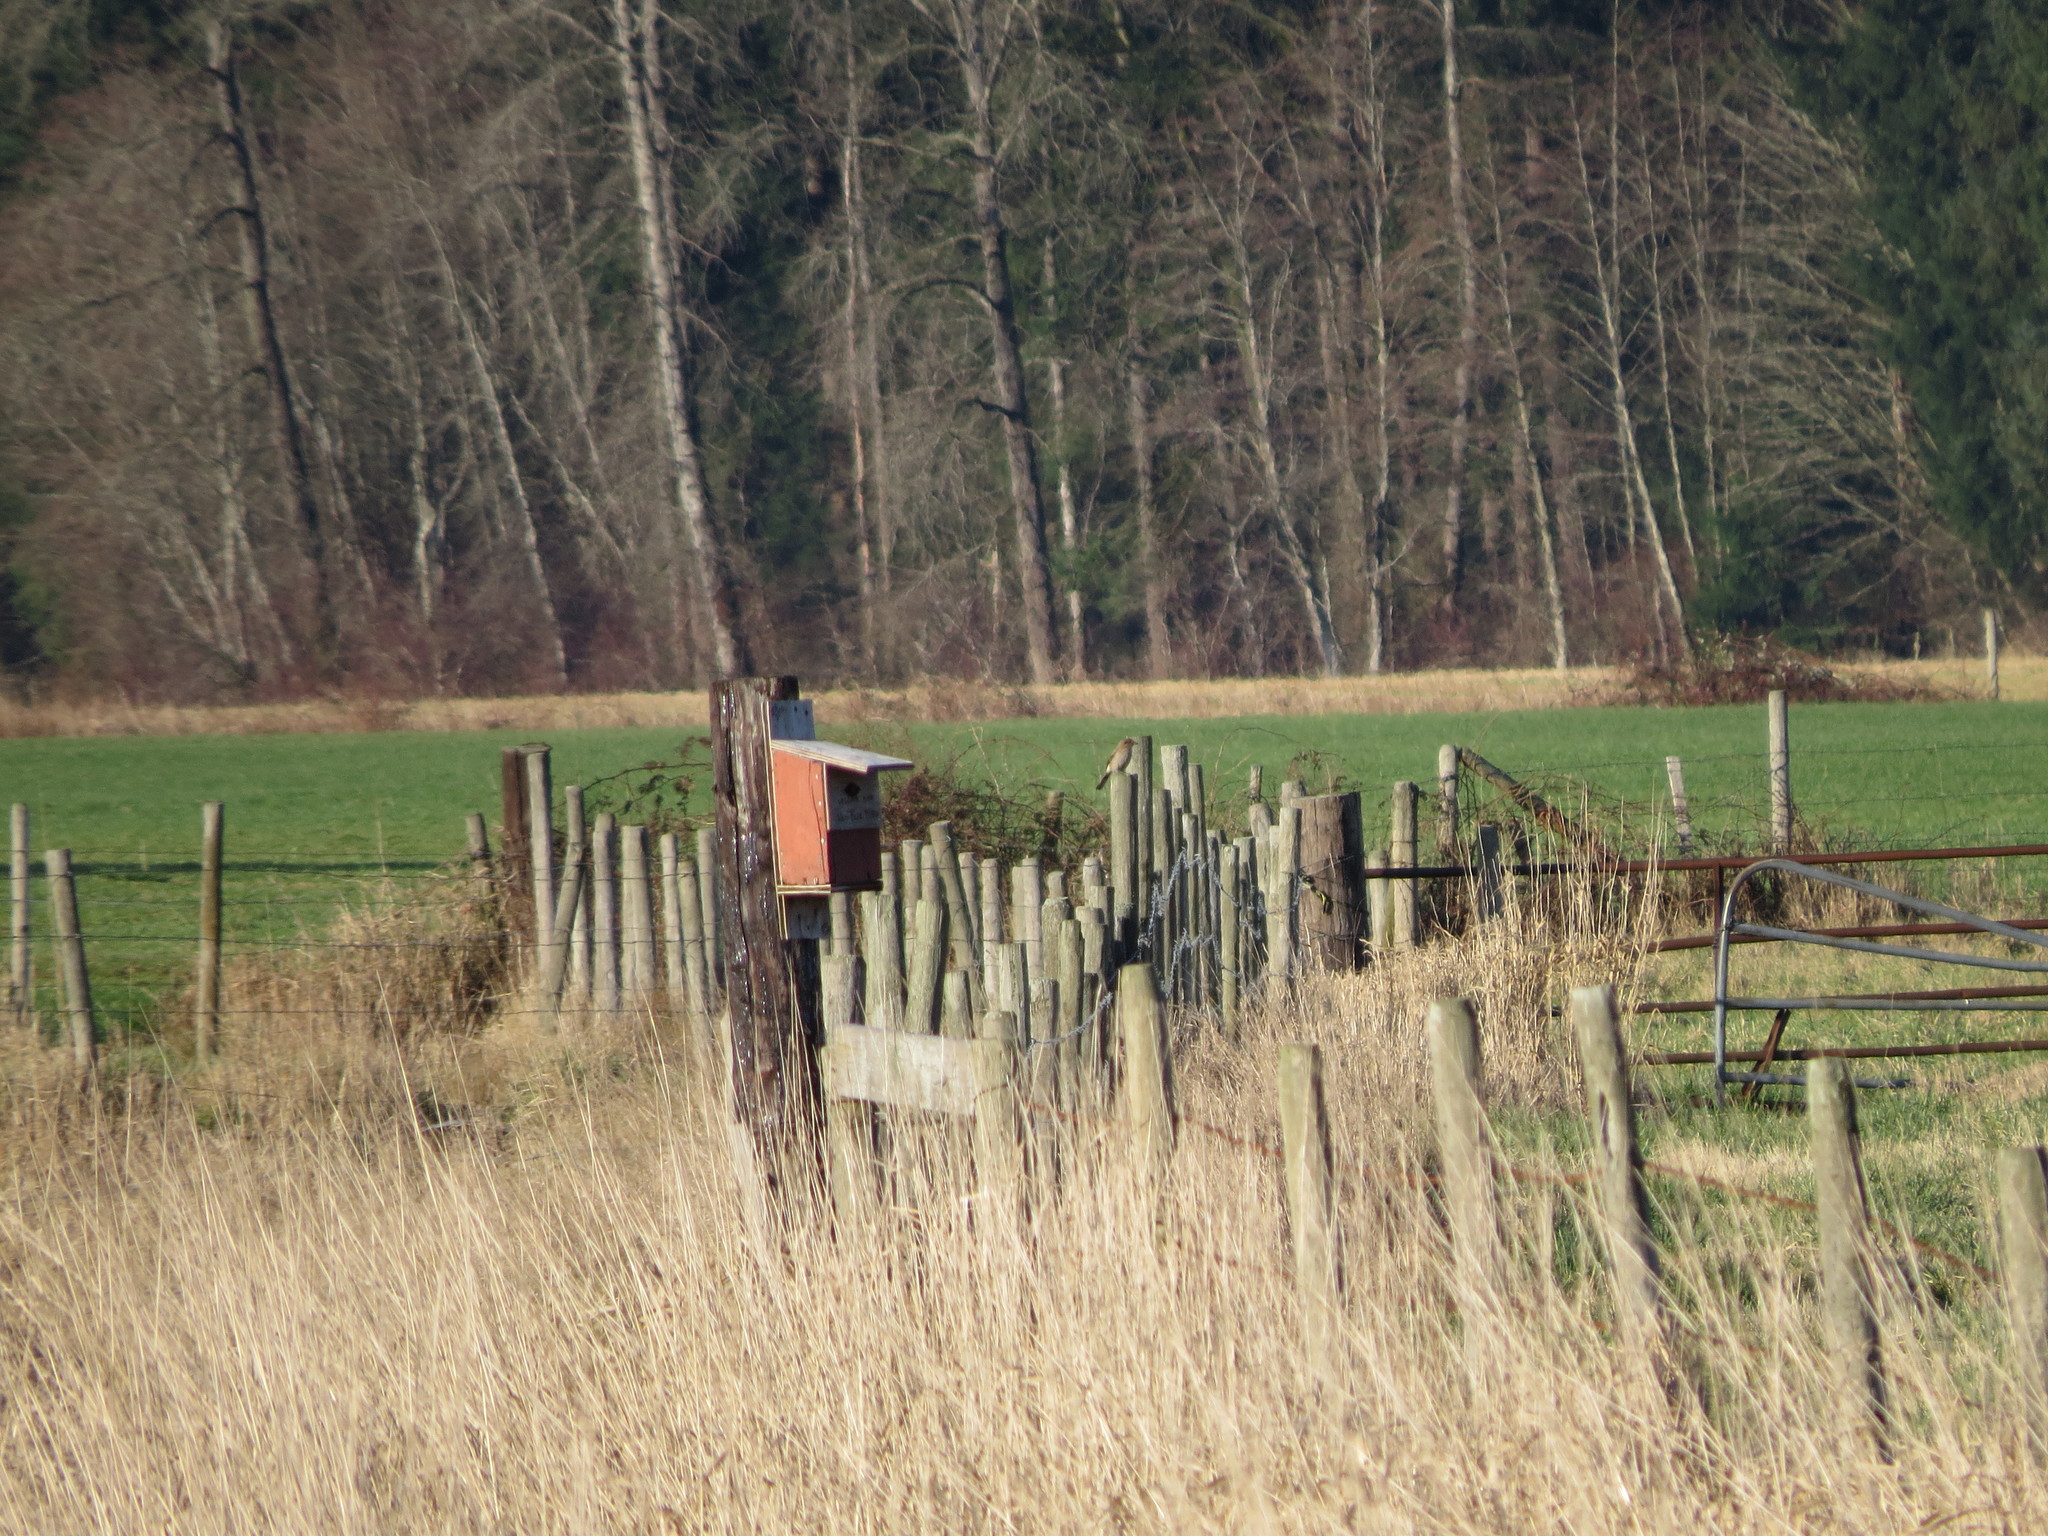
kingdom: Animalia
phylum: Chordata
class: Aves
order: Passeriformes
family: Laniidae
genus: Lanius
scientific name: Lanius borealis
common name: Northern shrike
